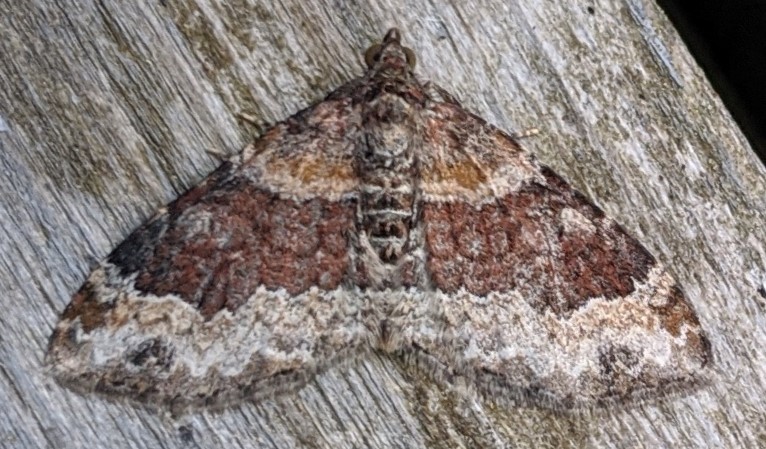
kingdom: Animalia
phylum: Arthropoda
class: Insecta
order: Lepidoptera
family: Geometridae
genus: Xanthorhoe
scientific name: Xanthorhoe ferrugata
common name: Dark-barred twin-spot carpet
